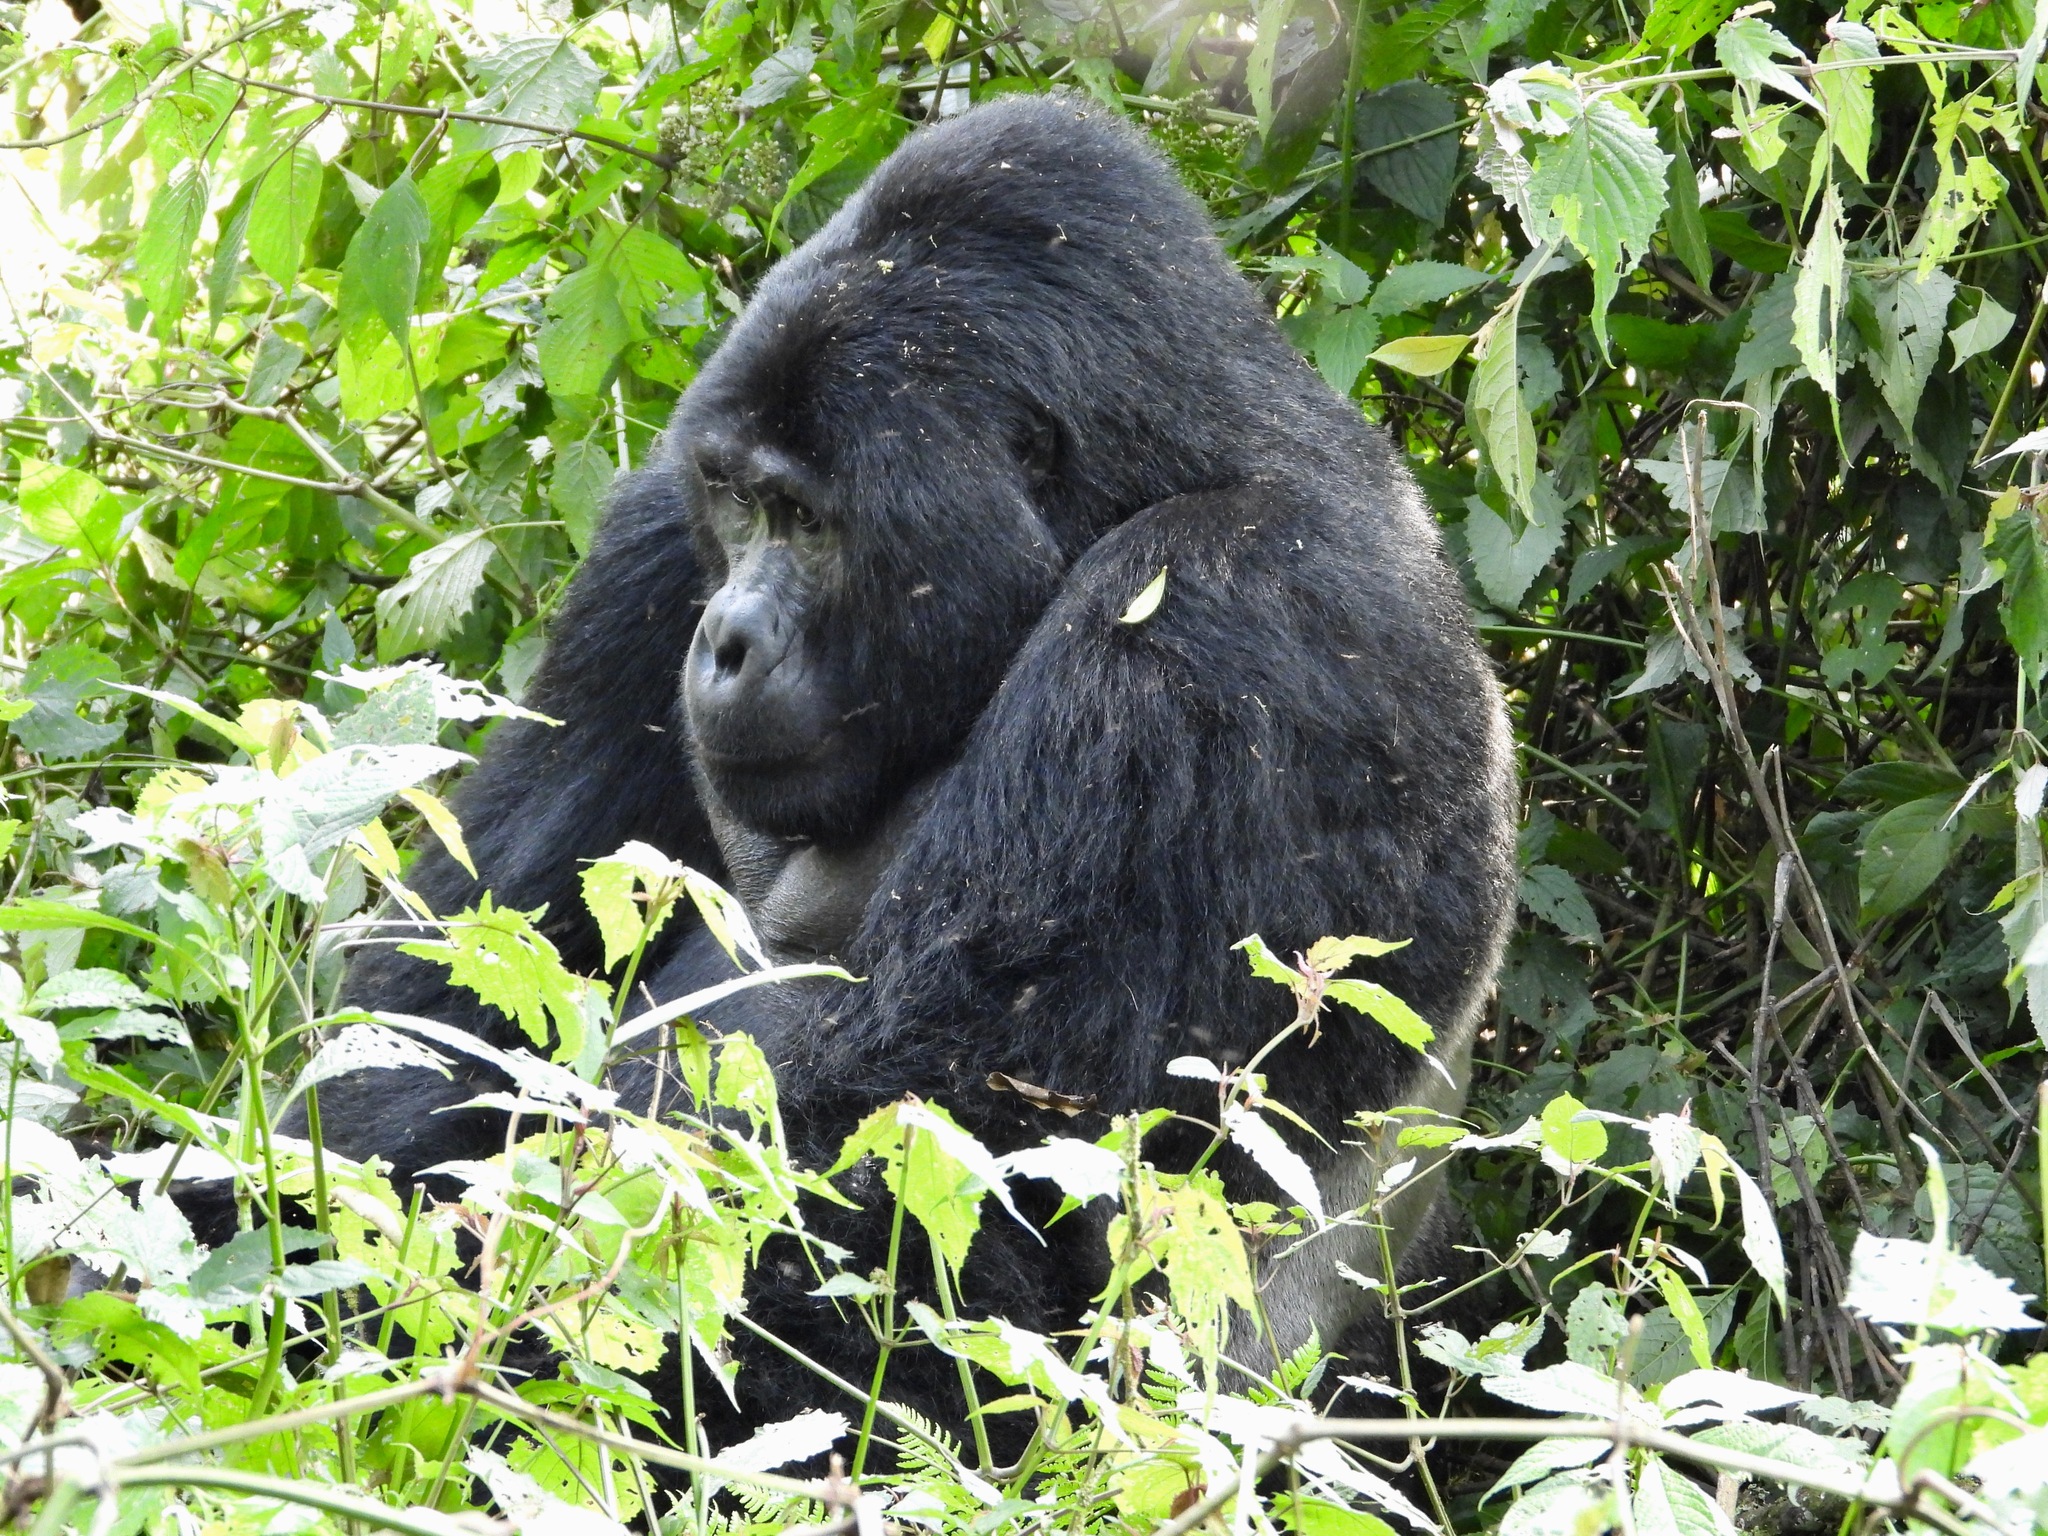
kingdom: Animalia
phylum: Chordata
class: Mammalia
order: Primates
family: Hominidae
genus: Gorilla
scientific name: Gorilla beringei
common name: Eastern gorilla
